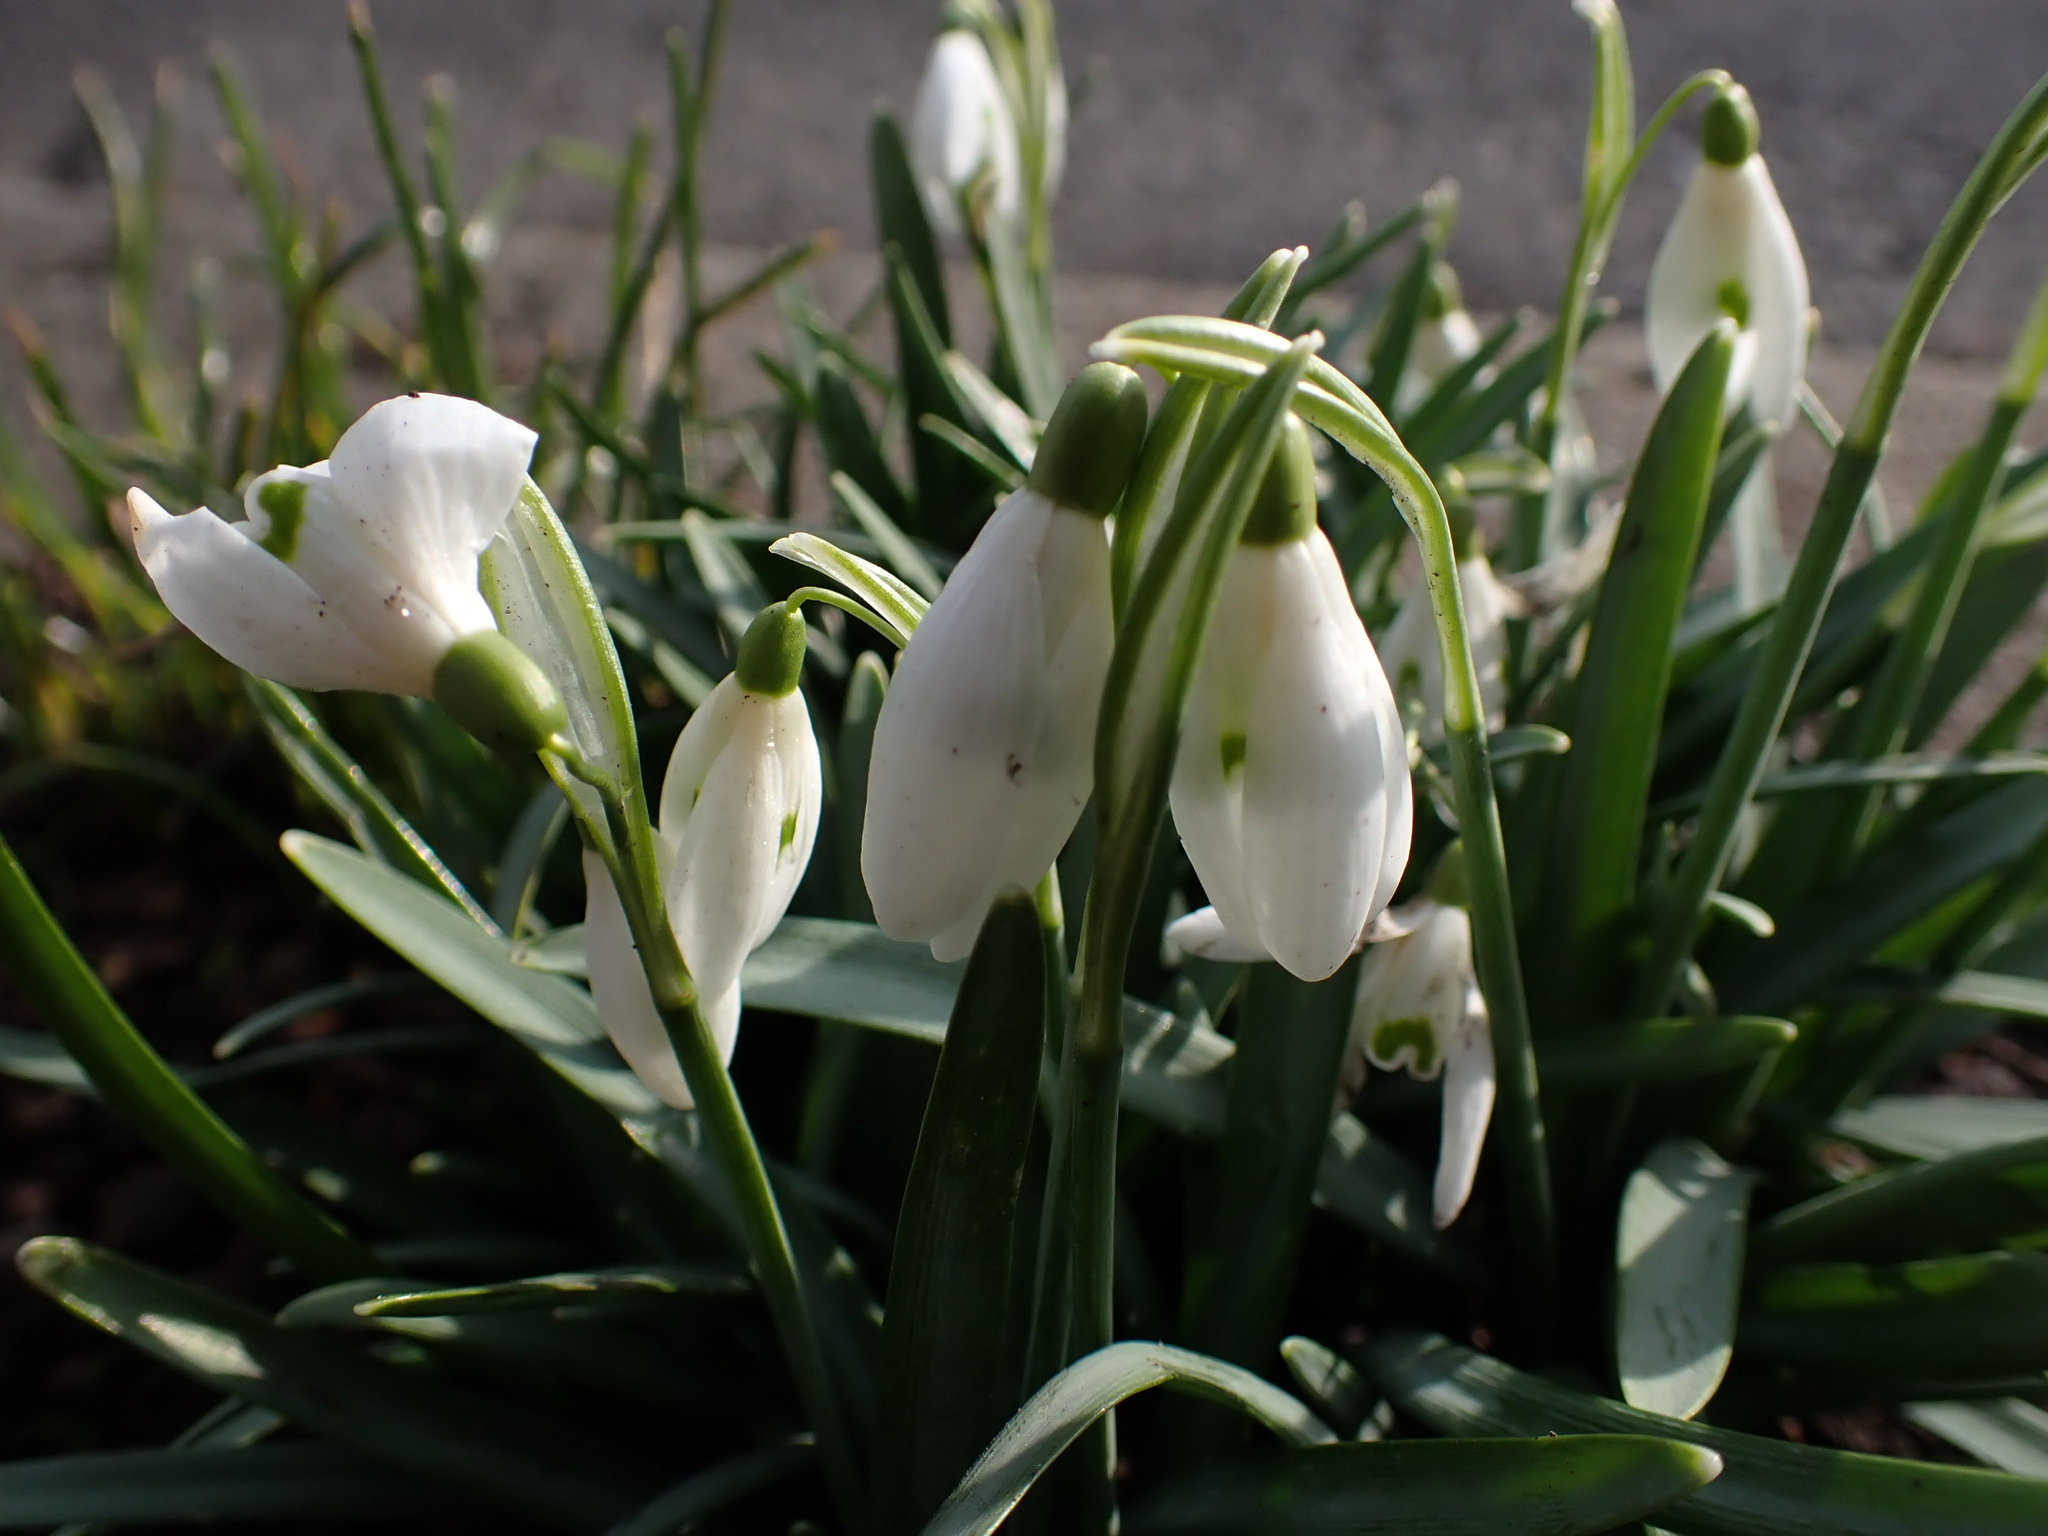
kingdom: Plantae
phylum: Tracheophyta
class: Liliopsida
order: Asparagales
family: Amaryllidaceae
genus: Galanthus
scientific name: Galanthus nivalis
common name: Snowdrop
